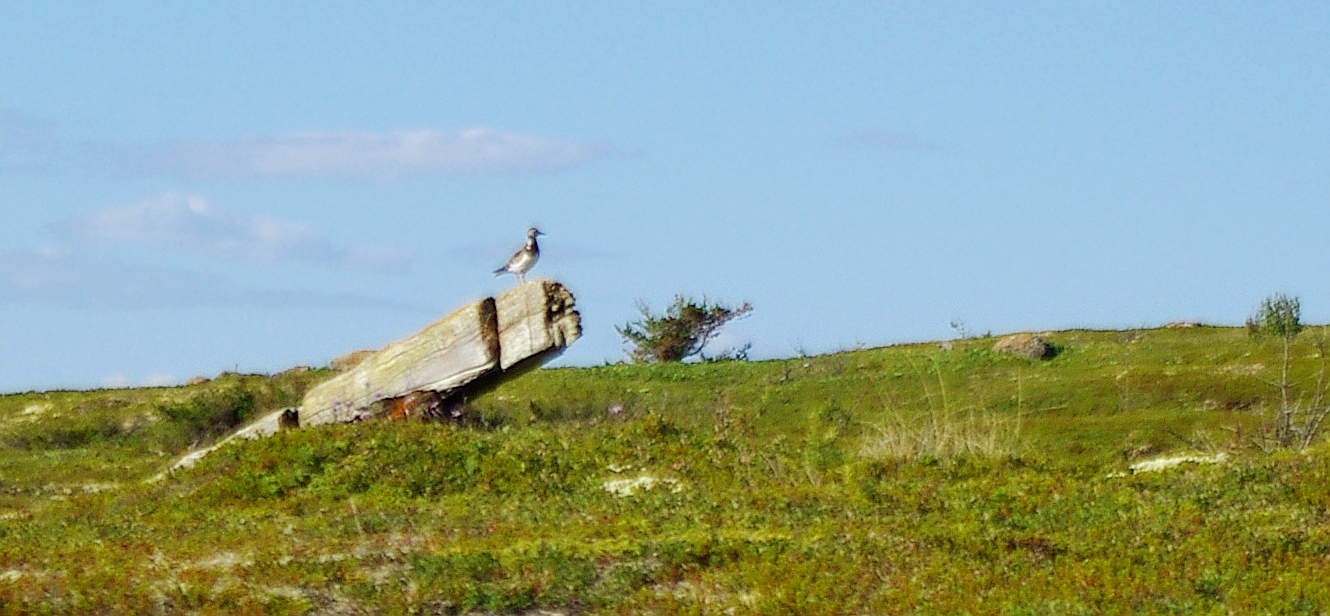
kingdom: Animalia
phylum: Chordata
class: Aves
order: Charadriiformes
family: Scolopacidae
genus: Arenaria
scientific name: Arenaria interpres
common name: Ruddy turnstone
